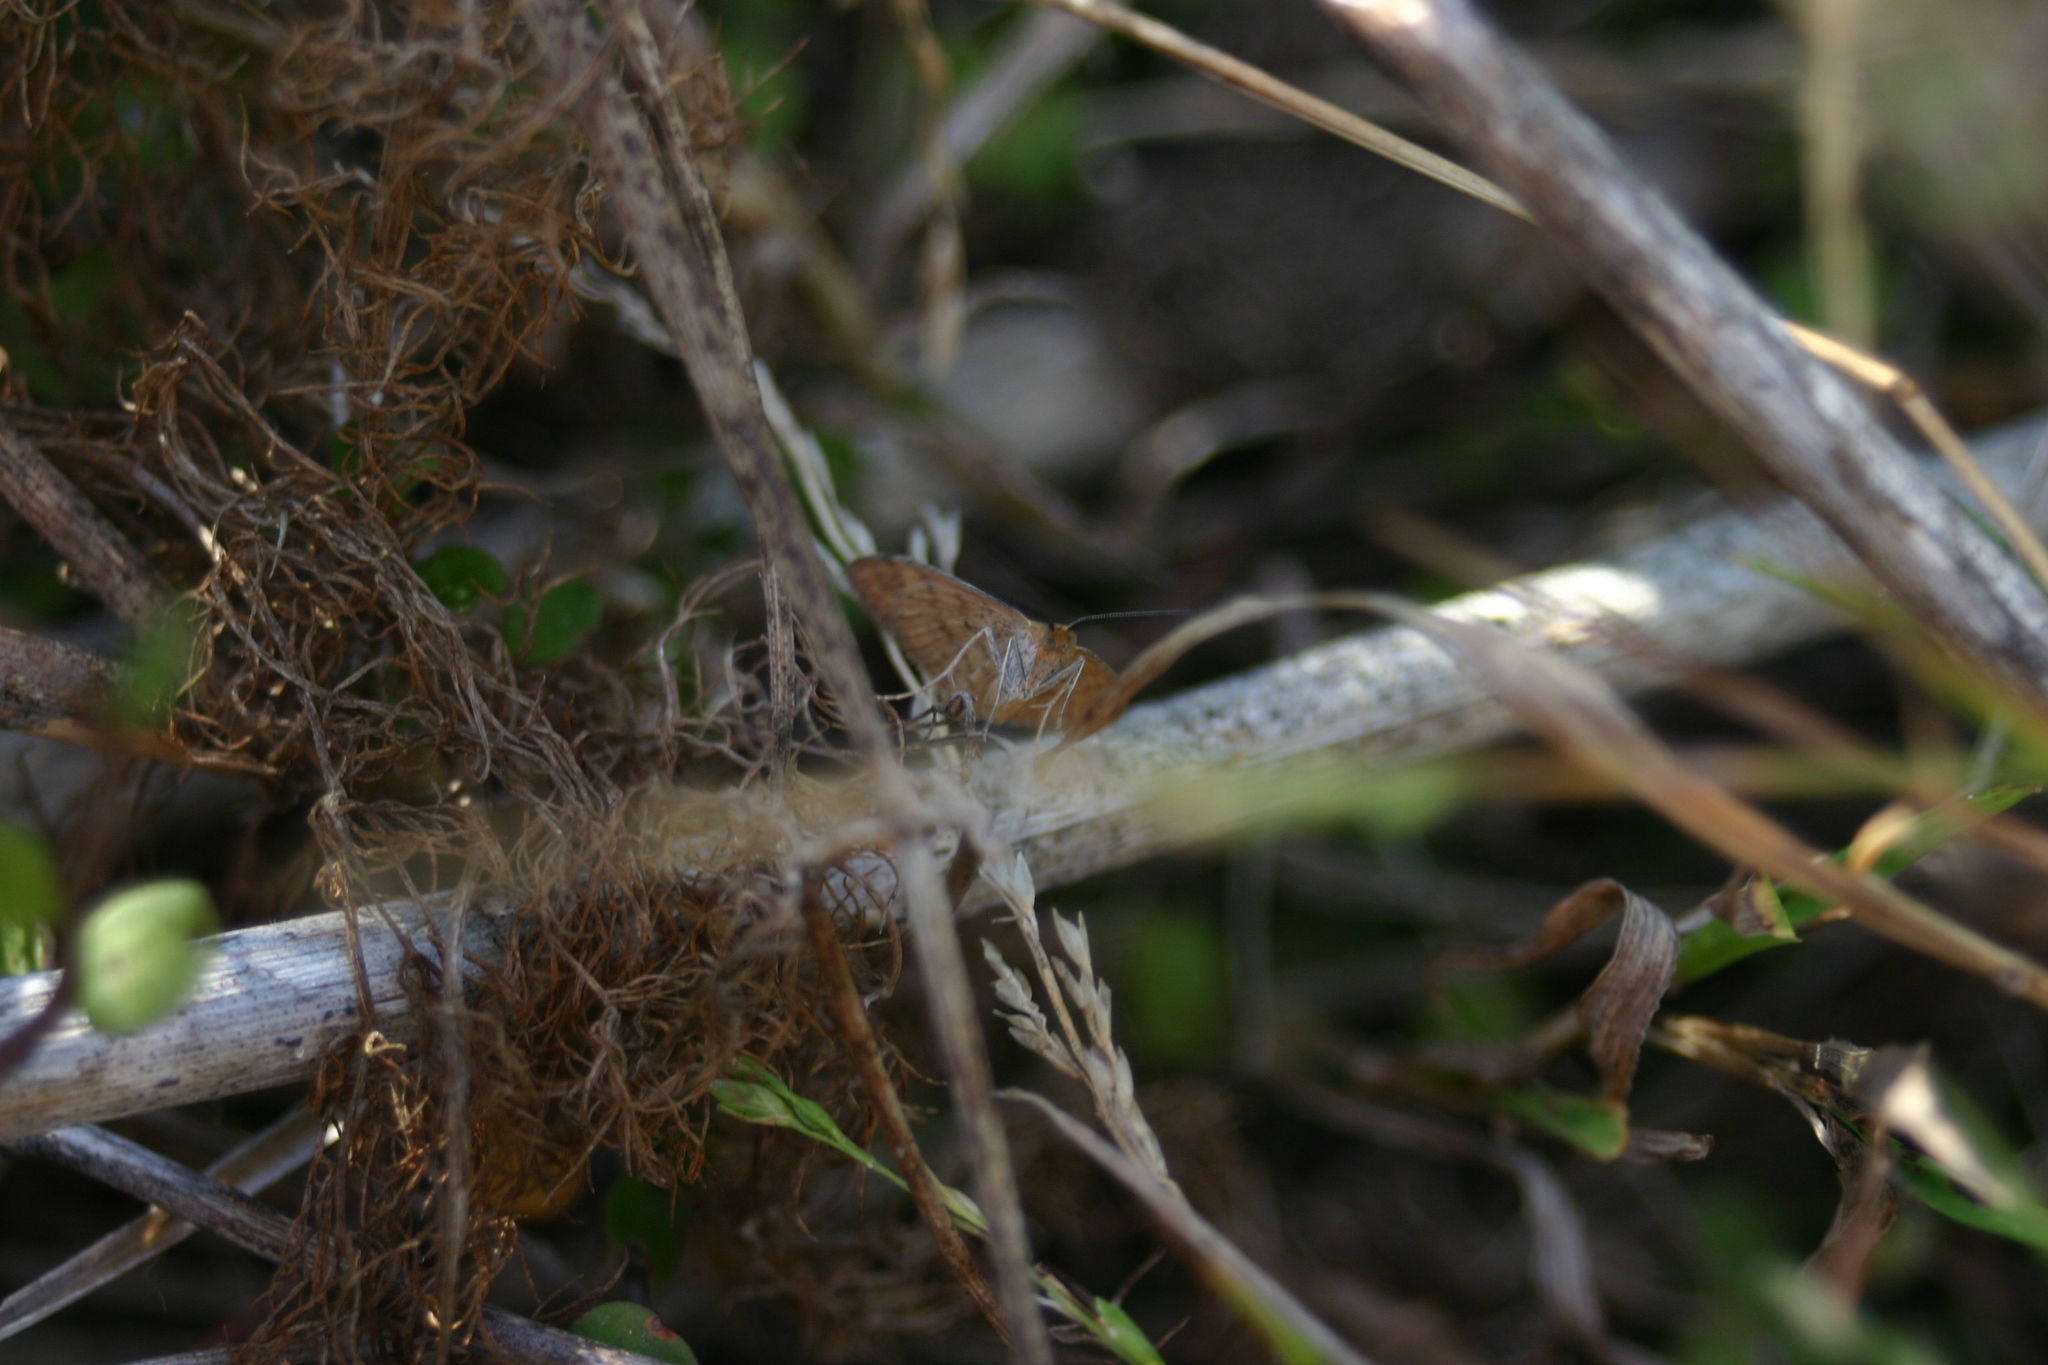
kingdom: Animalia
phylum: Arthropoda
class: Insecta
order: Lepidoptera
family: Geometridae
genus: Scopula
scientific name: Scopula rubraria
